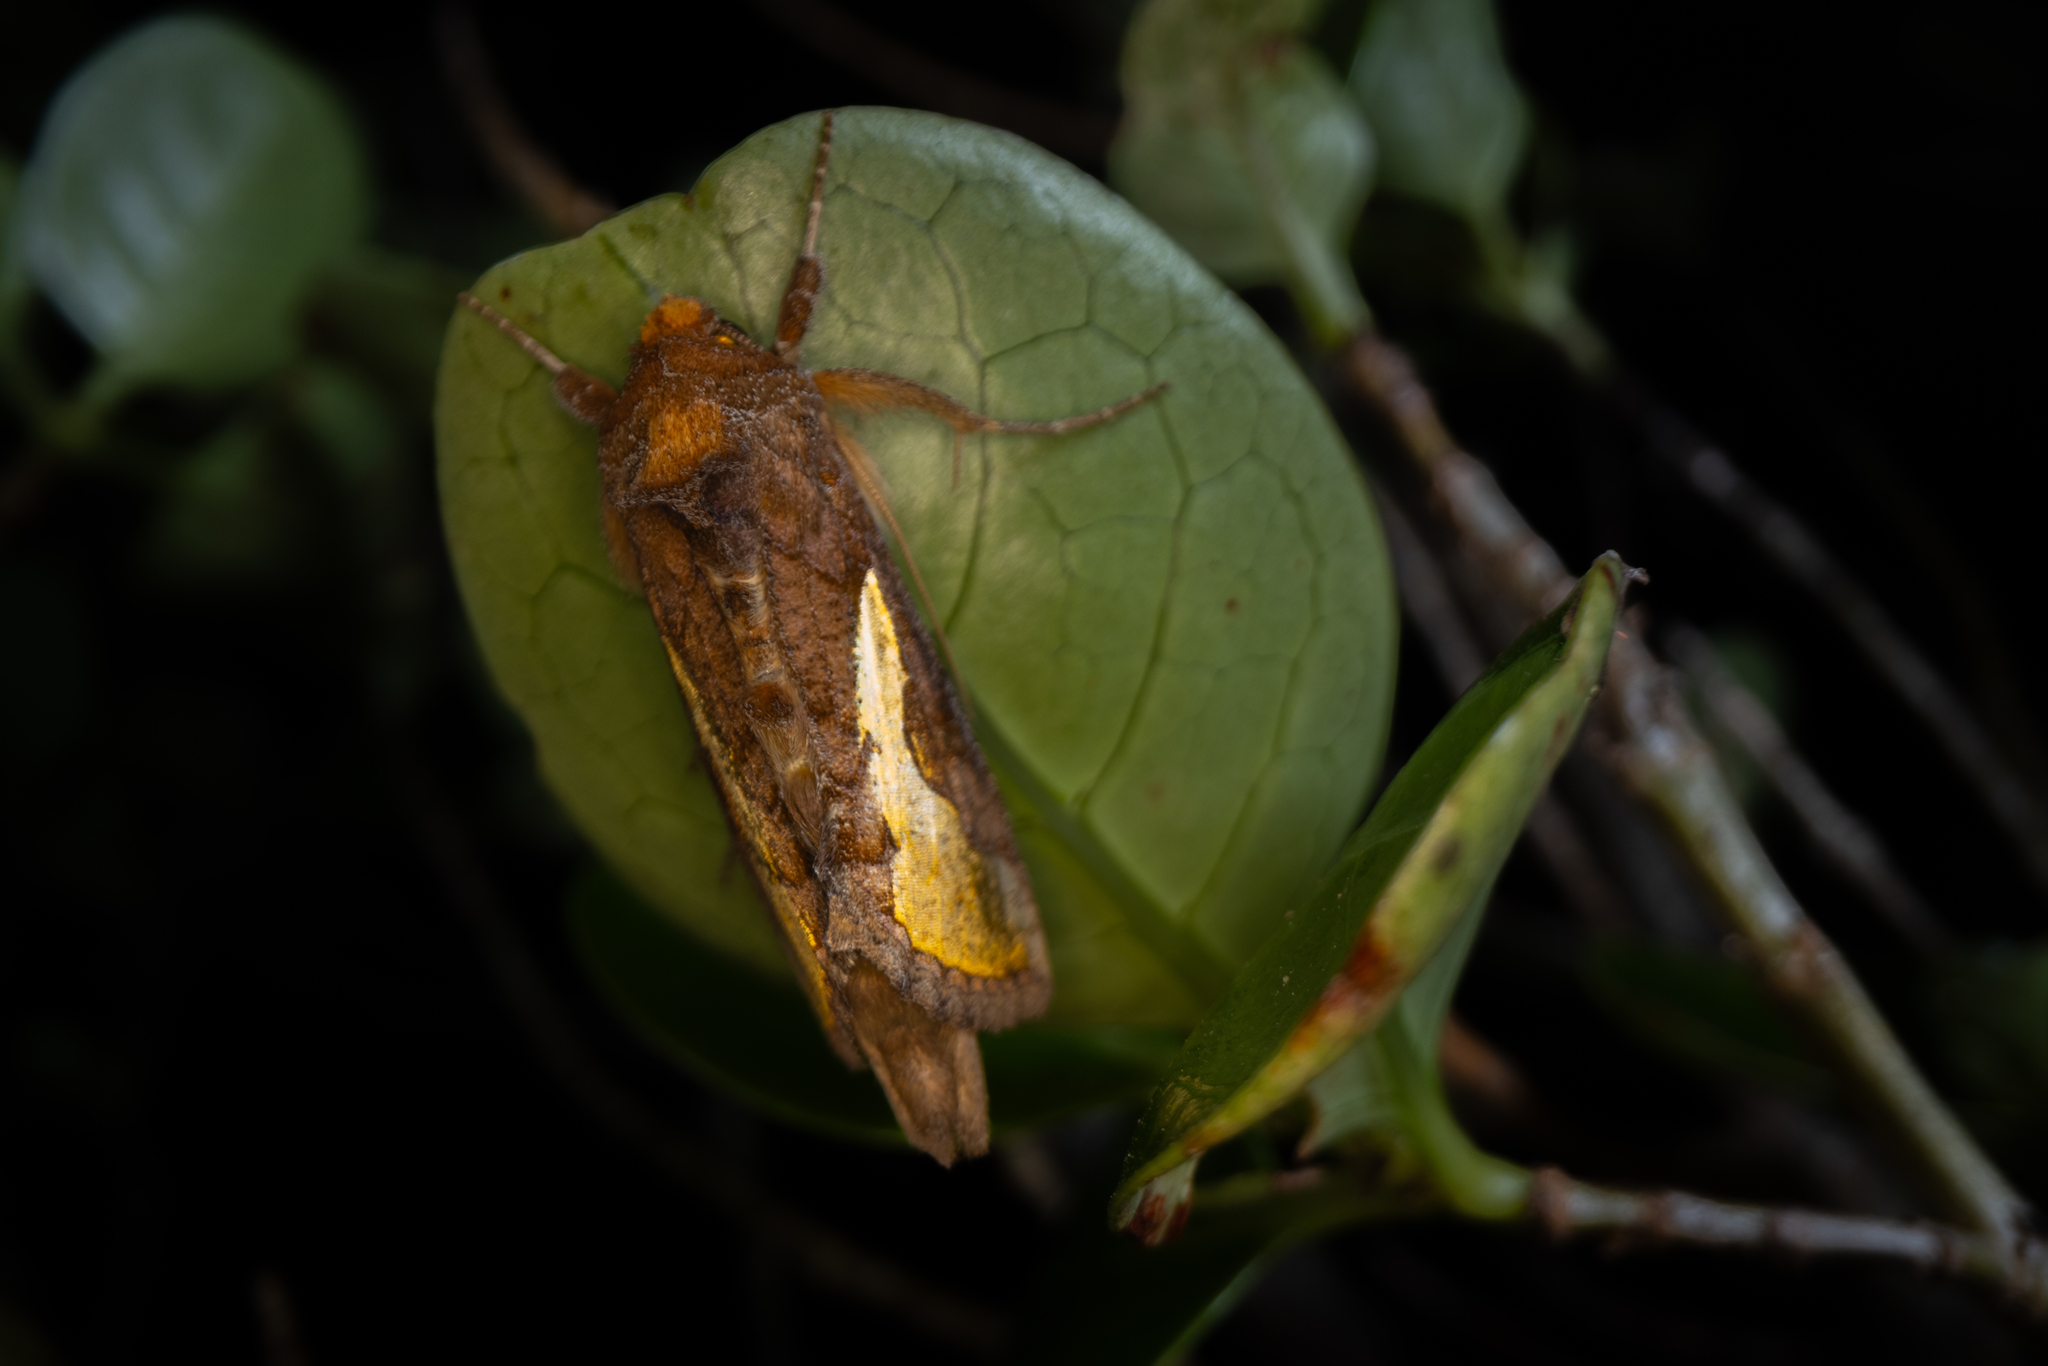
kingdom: Animalia
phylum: Arthropoda
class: Insecta
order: Lepidoptera
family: Noctuidae
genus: Thysanoplusia
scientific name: Thysanoplusia orichalcea
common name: Slender burnished brass, golden plusia
